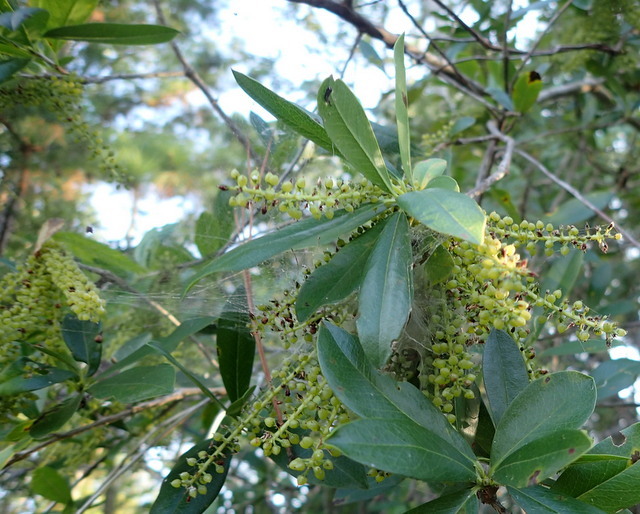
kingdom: Plantae
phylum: Tracheophyta
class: Magnoliopsida
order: Ericales
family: Cyrillaceae
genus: Cyrilla
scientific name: Cyrilla racemiflora
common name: Black titi
